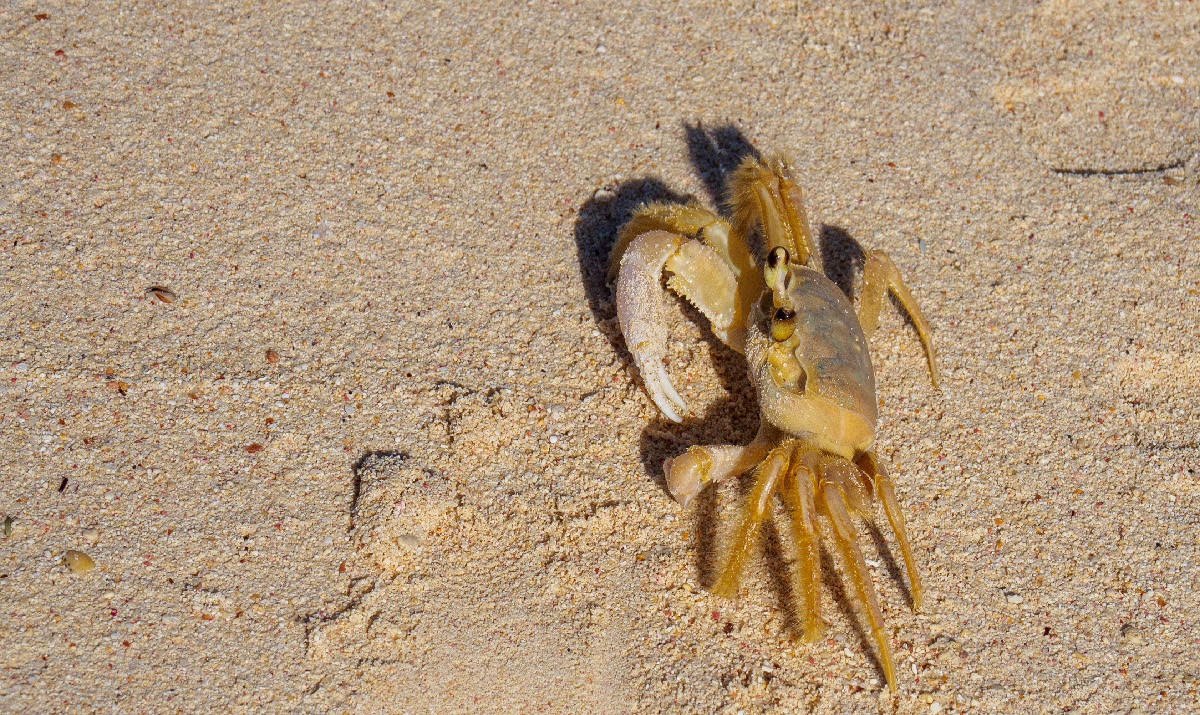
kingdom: Animalia
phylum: Arthropoda
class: Malacostraca
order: Decapoda
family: Ocypodidae
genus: Ocypode
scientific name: Ocypode quadrata
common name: Ghost crab
